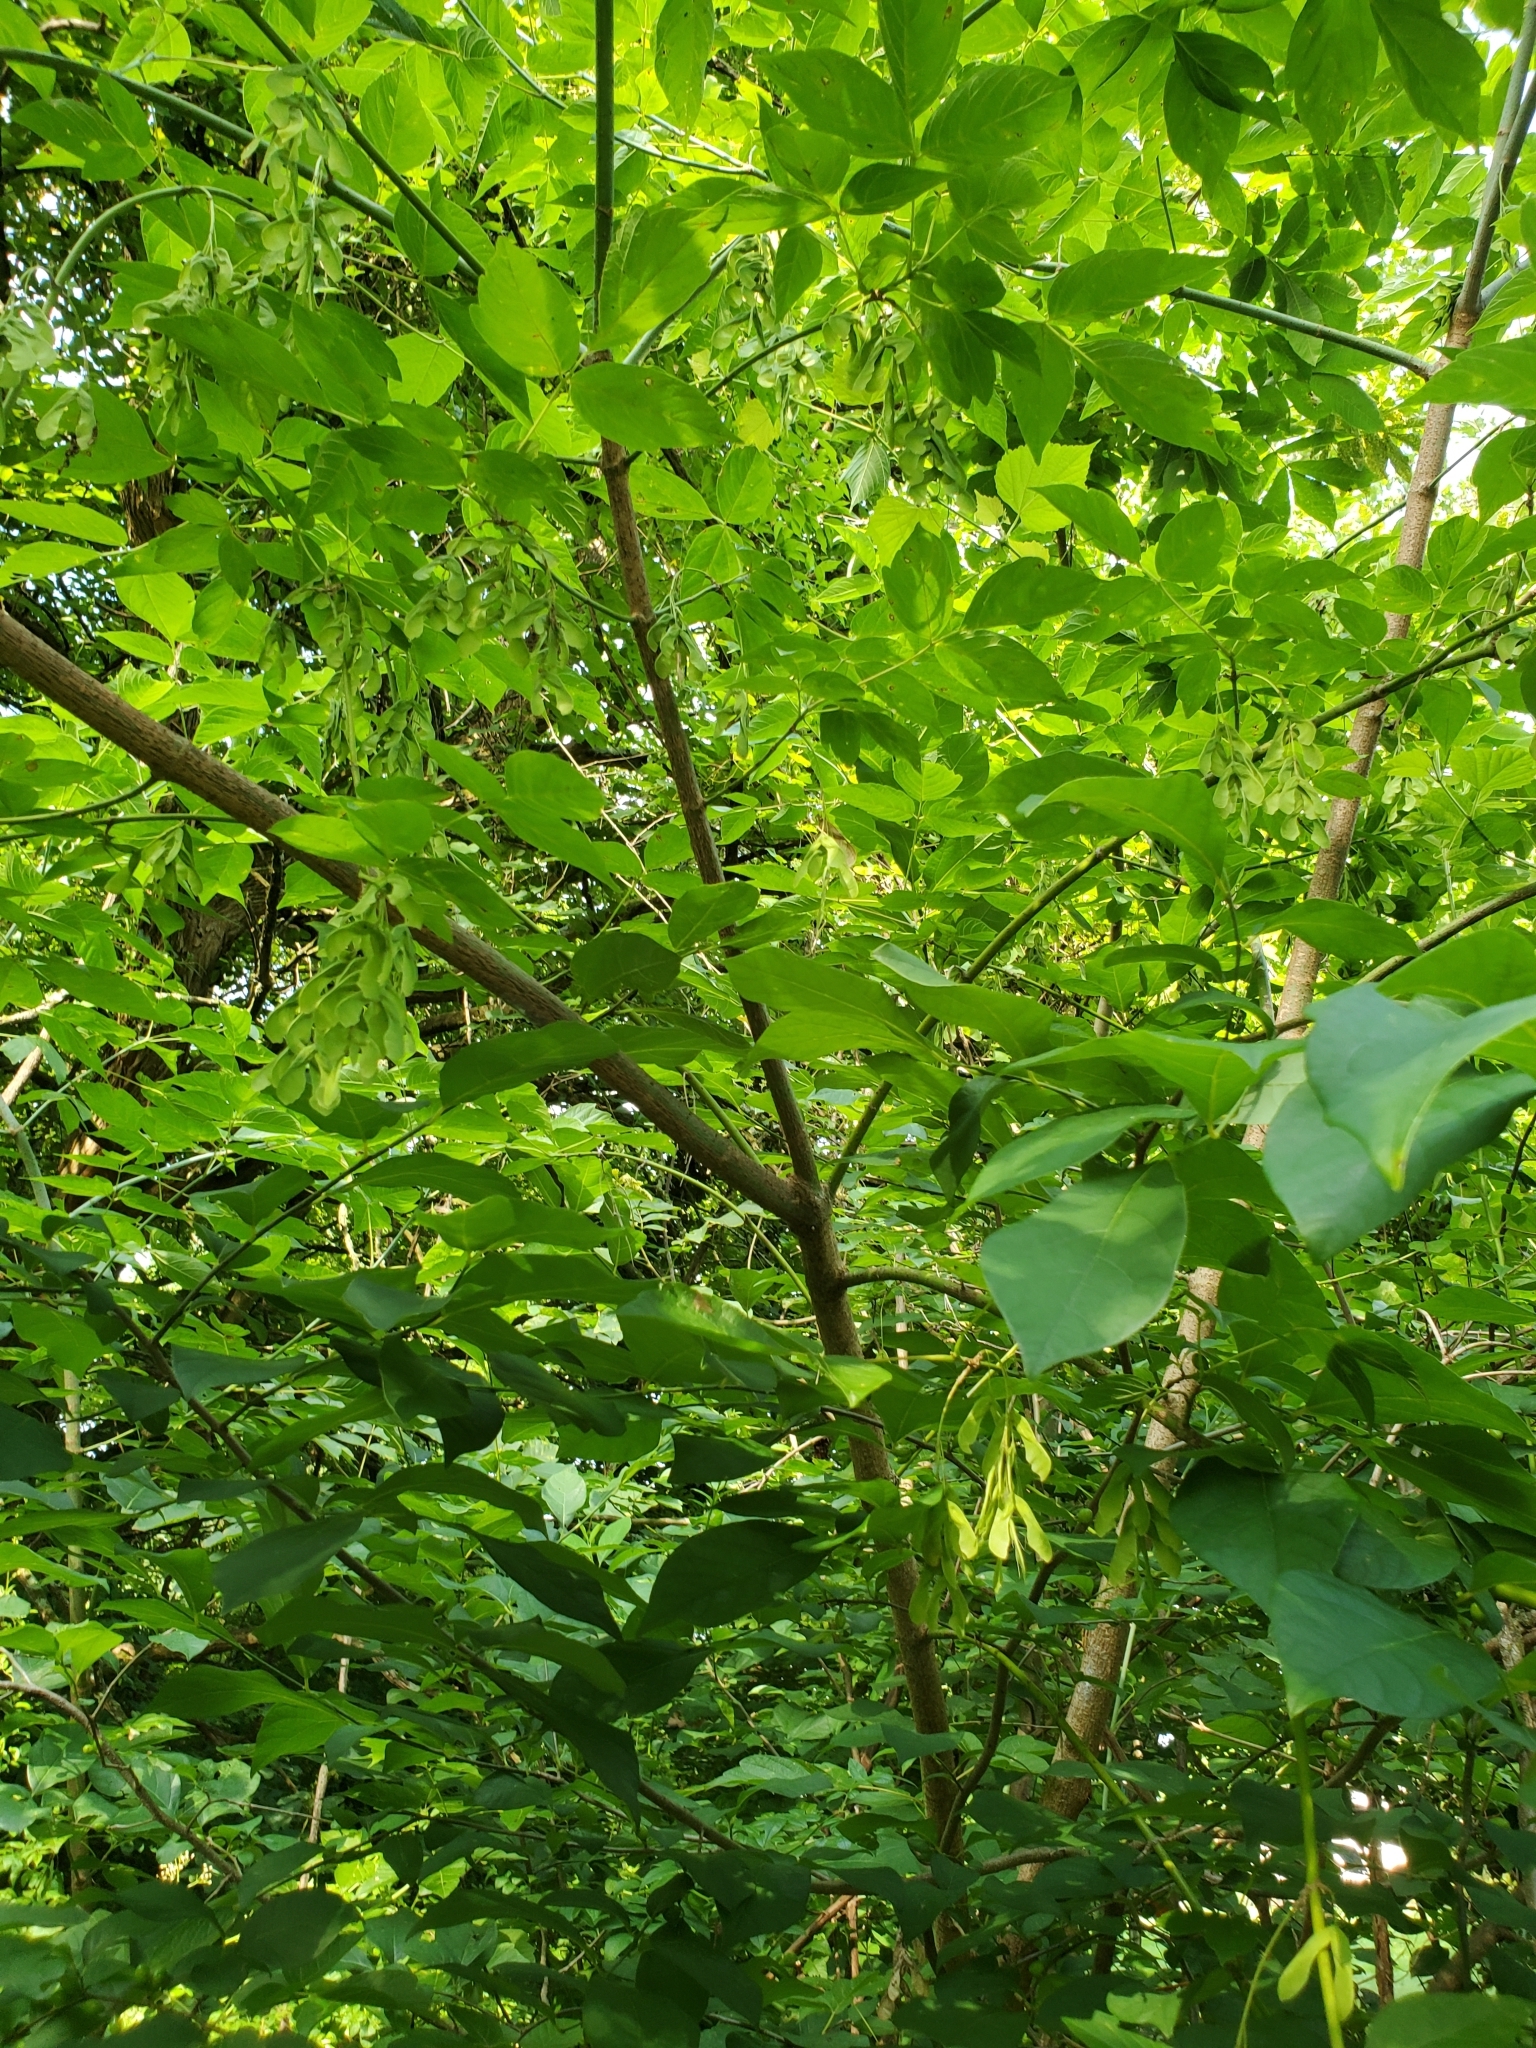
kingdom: Plantae
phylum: Tracheophyta
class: Magnoliopsida
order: Sapindales
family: Sapindaceae
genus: Acer
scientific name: Acer negundo
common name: Ashleaf maple
